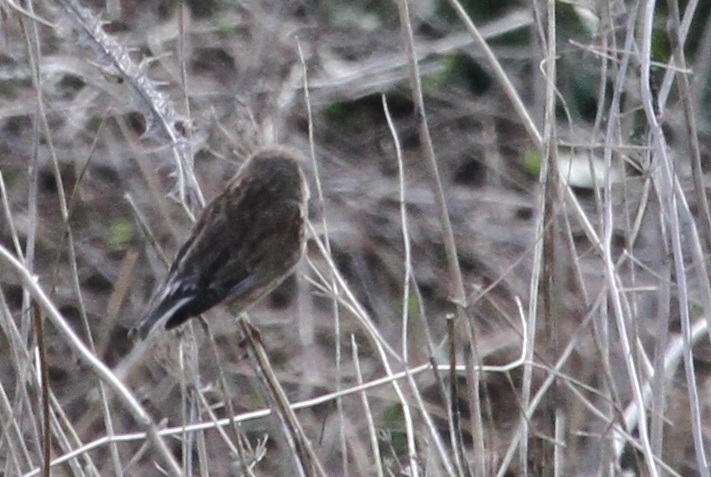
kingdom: Animalia
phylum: Chordata
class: Aves
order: Passeriformes
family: Fringillidae
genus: Linaria
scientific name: Linaria cannabina
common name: Common linnet
